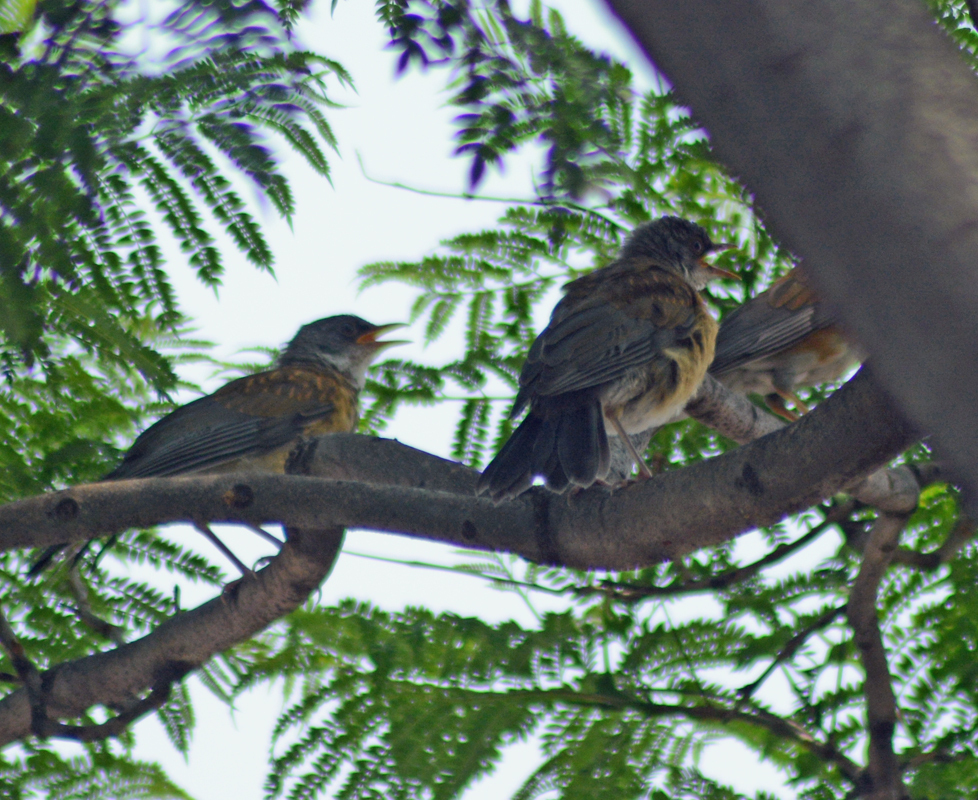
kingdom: Animalia
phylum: Chordata
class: Aves
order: Passeriformes
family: Turdidae
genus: Turdus
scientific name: Turdus rufopalliatus
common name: Rufous-backed robin
